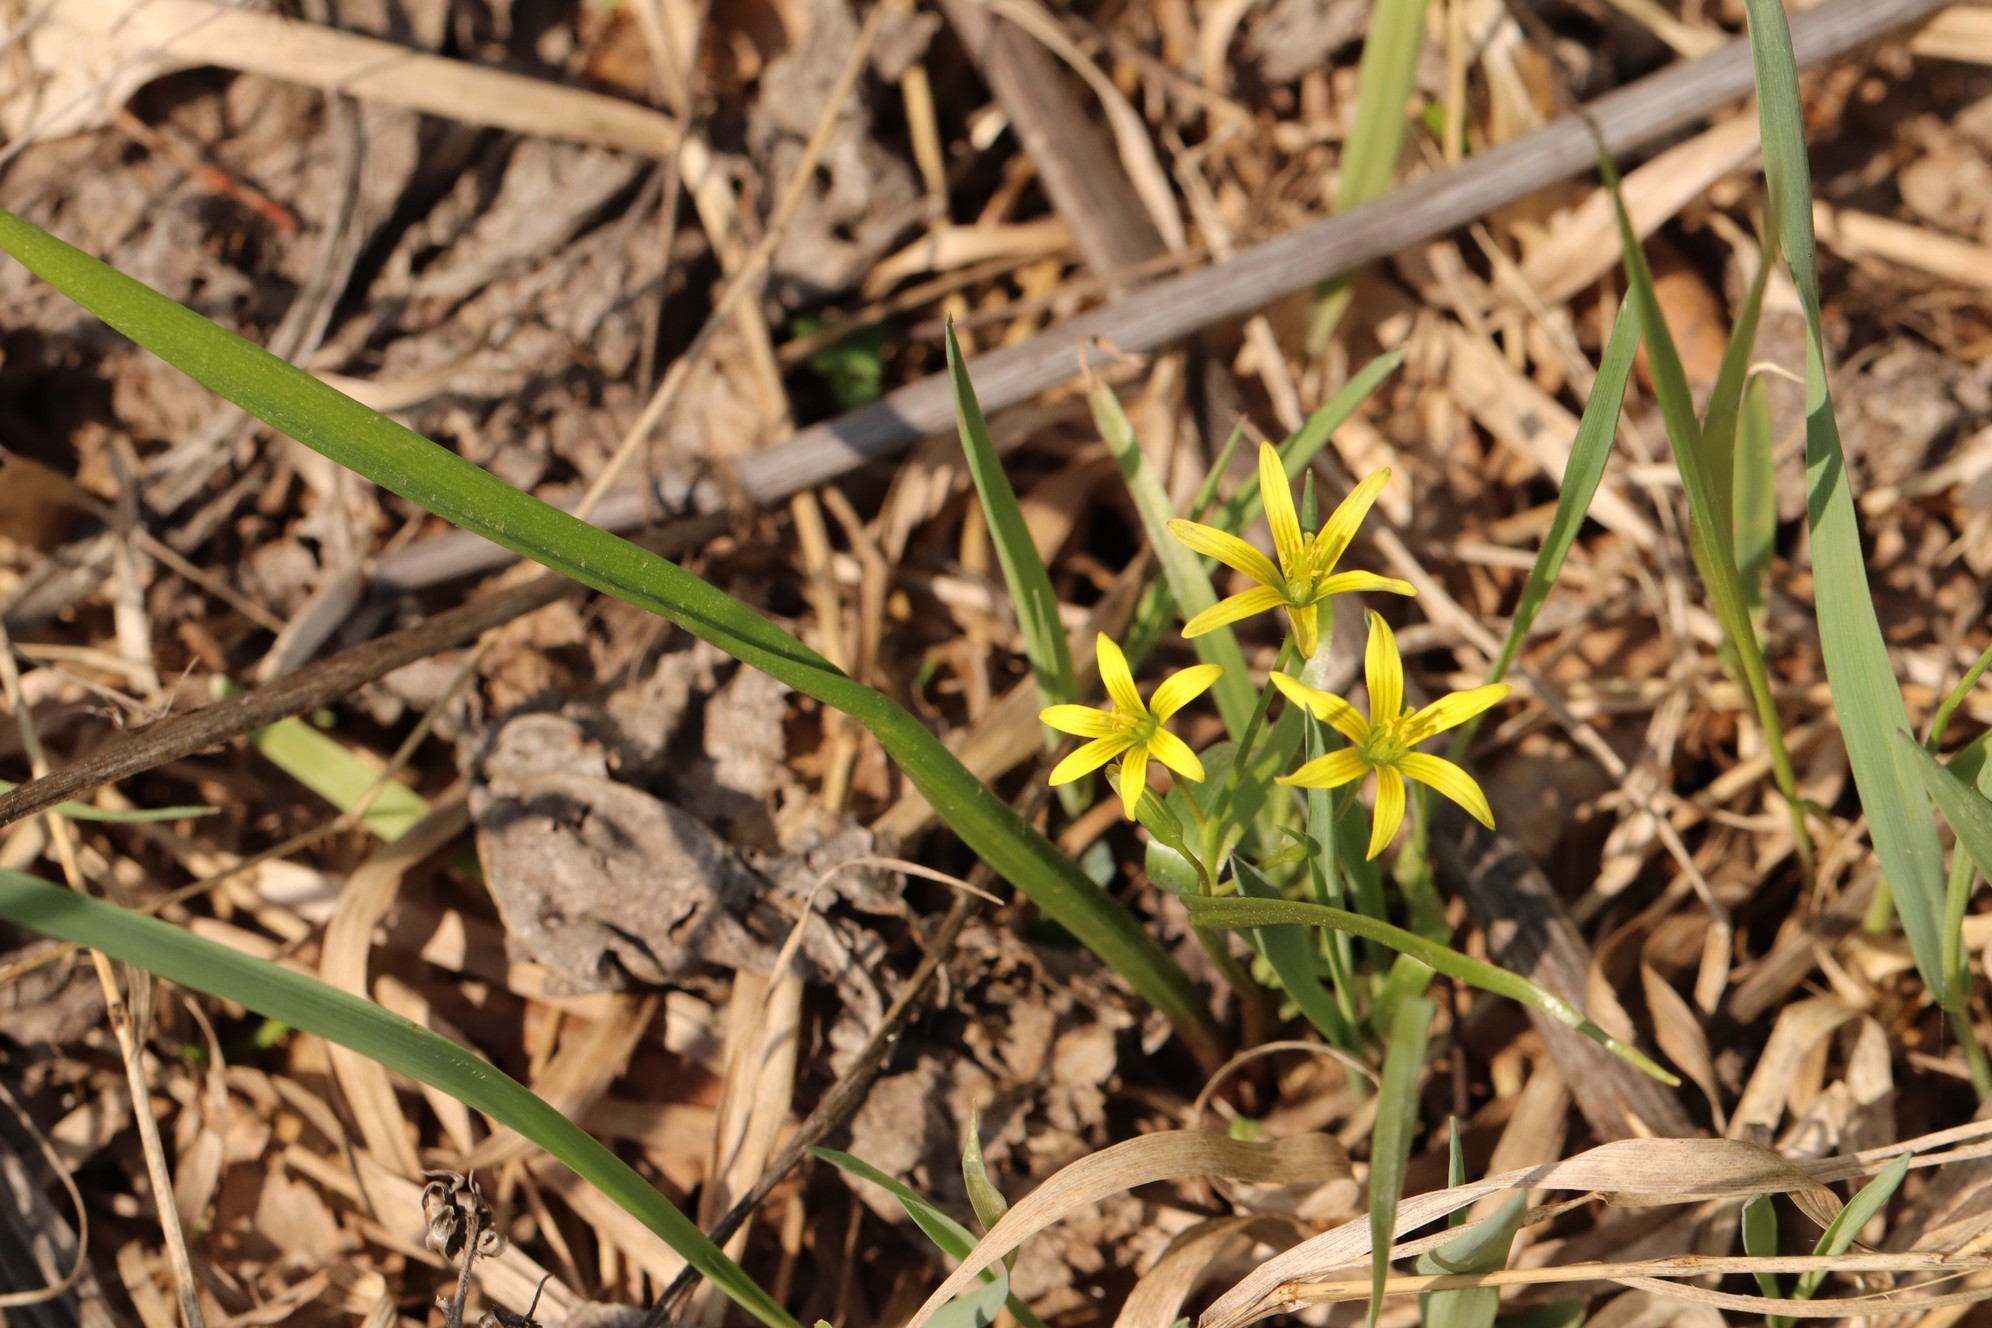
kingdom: Plantae
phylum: Tracheophyta
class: Liliopsida
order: Liliales
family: Liliaceae
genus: Gagea
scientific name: Gagea granulosa
